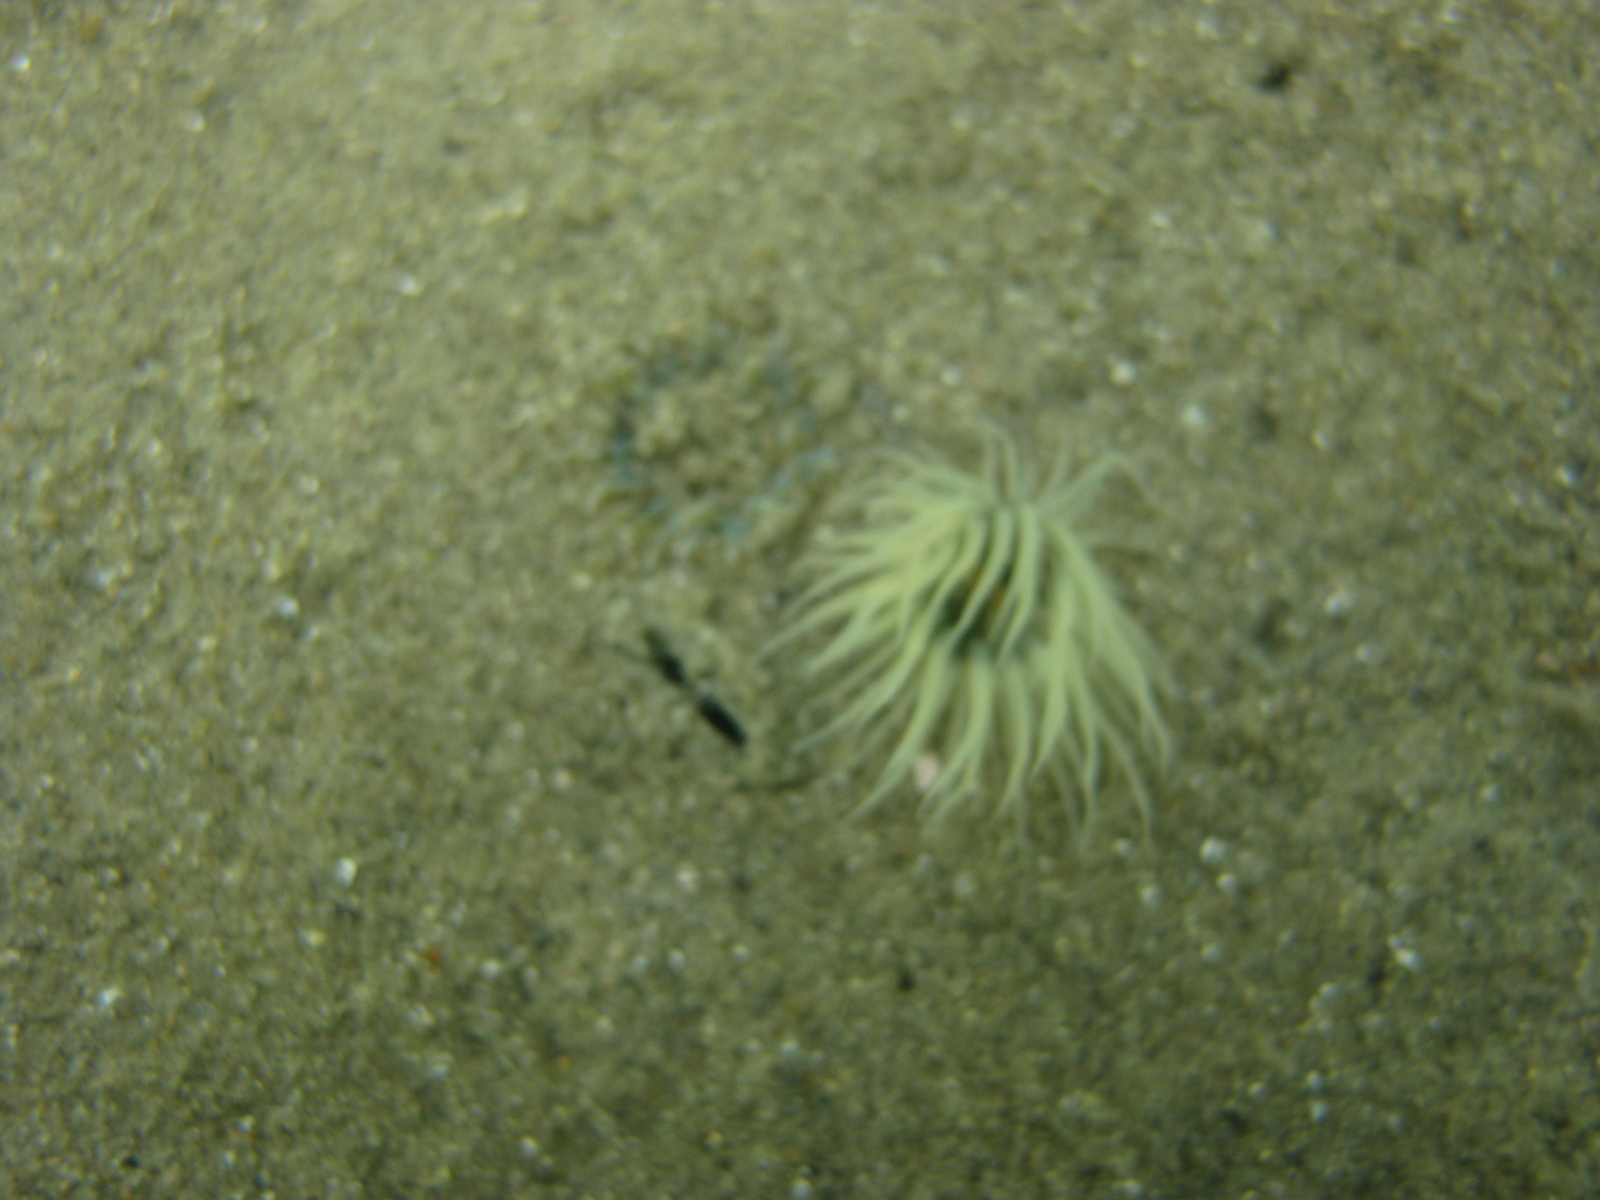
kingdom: Animalia
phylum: Cnidaria
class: Anthozoa
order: Actiniaria
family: Diadumenidae
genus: Diadumene
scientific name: Diadumene lineata
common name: Orange-striped anemone
